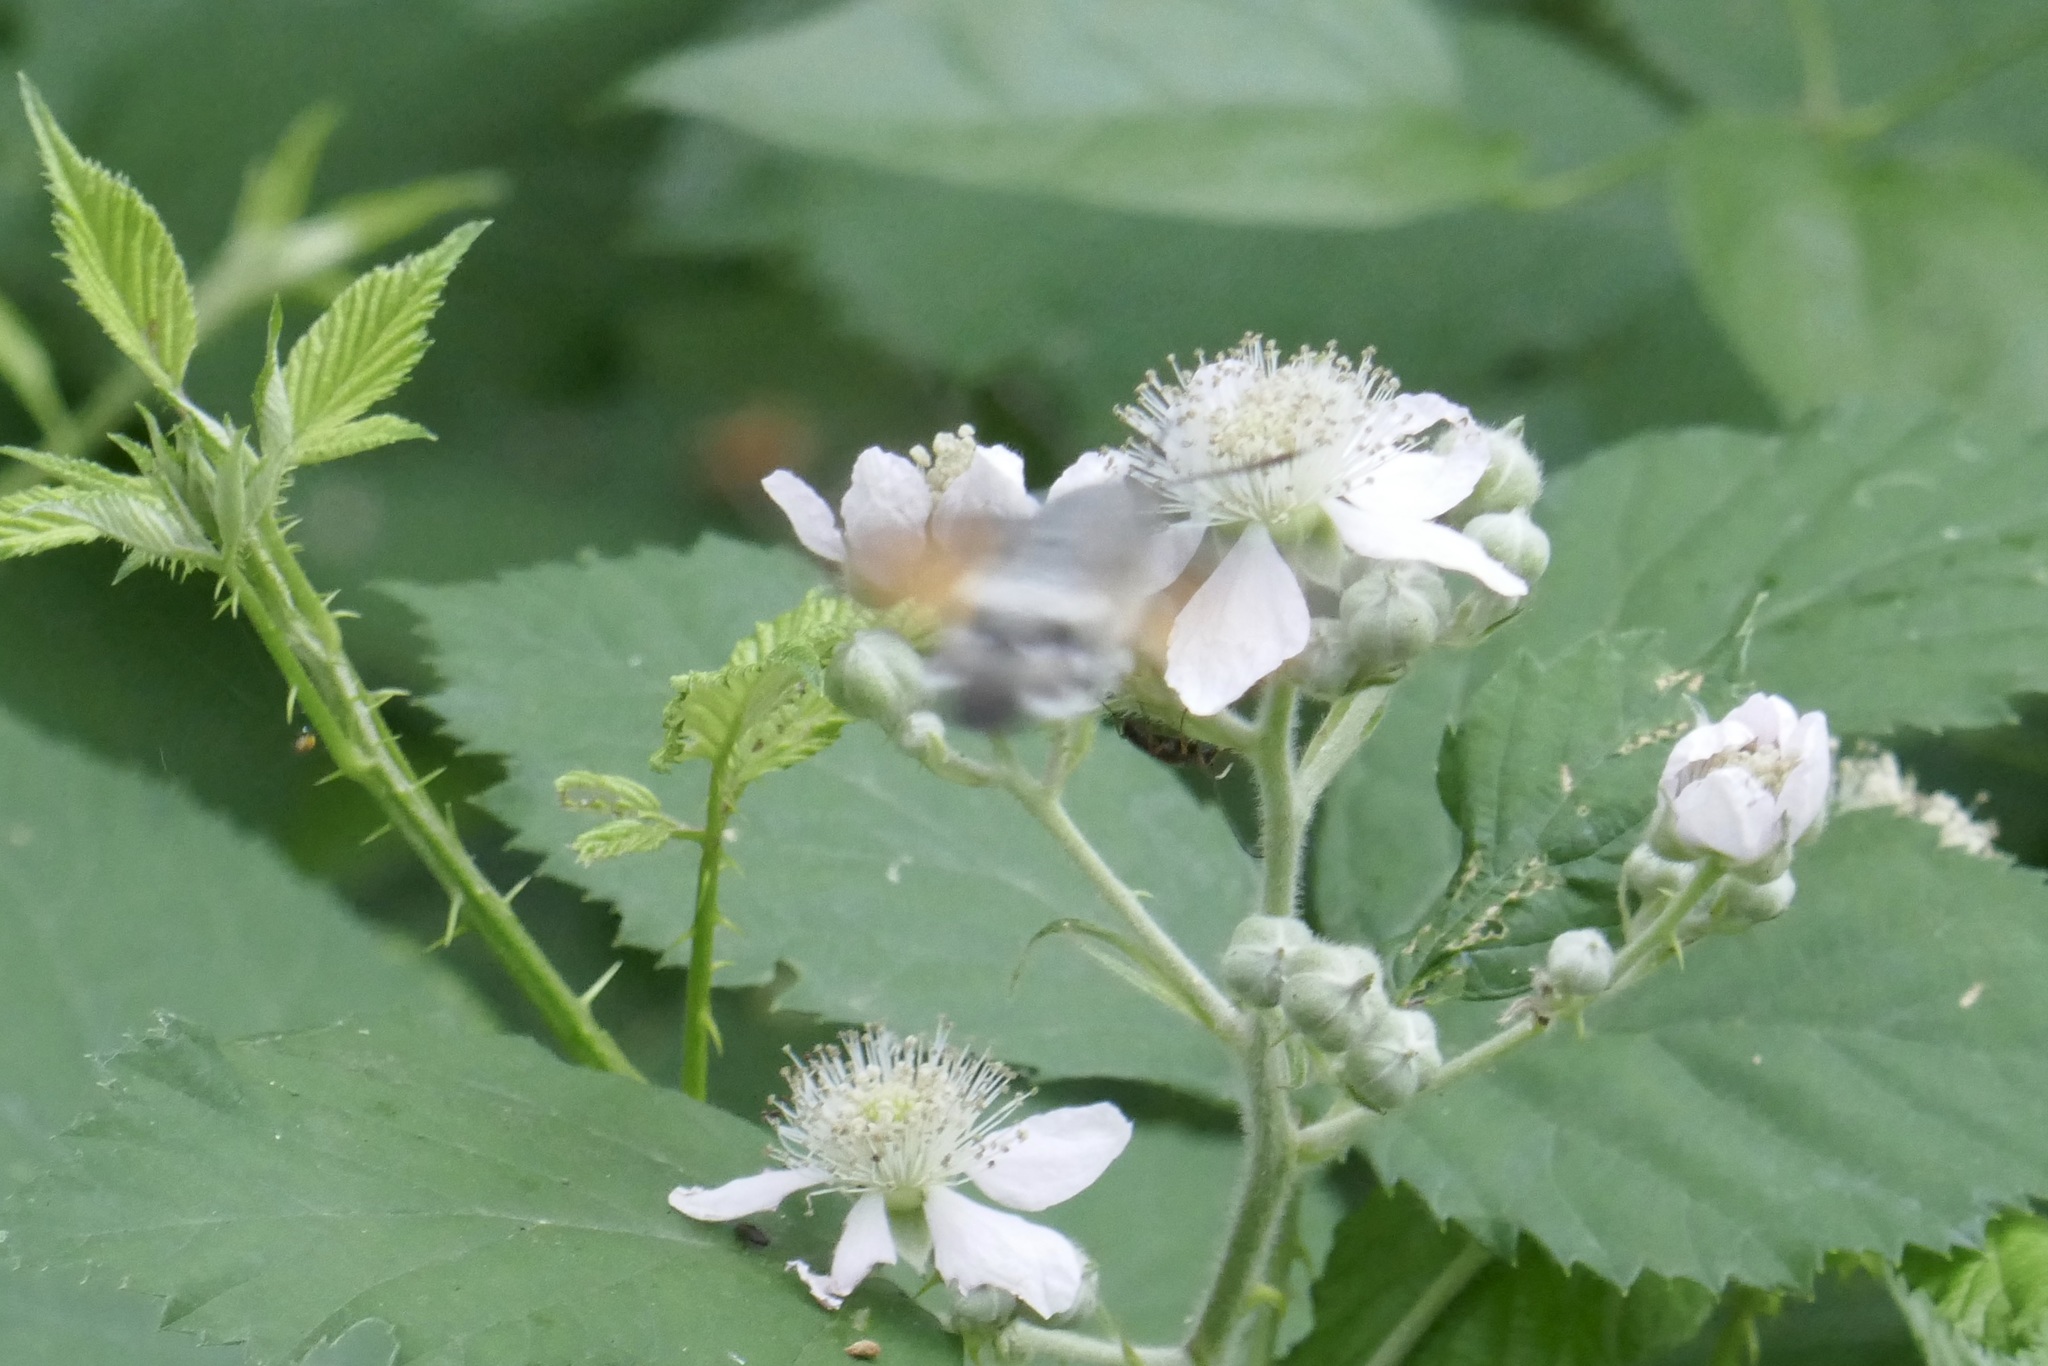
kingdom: Animalia
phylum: Arthropoda
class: Insecta
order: Lepidoptera
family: Sphingidae
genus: Macroglossum
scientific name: Macroglossum stellatarum
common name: Humming-bird hawk-moth
